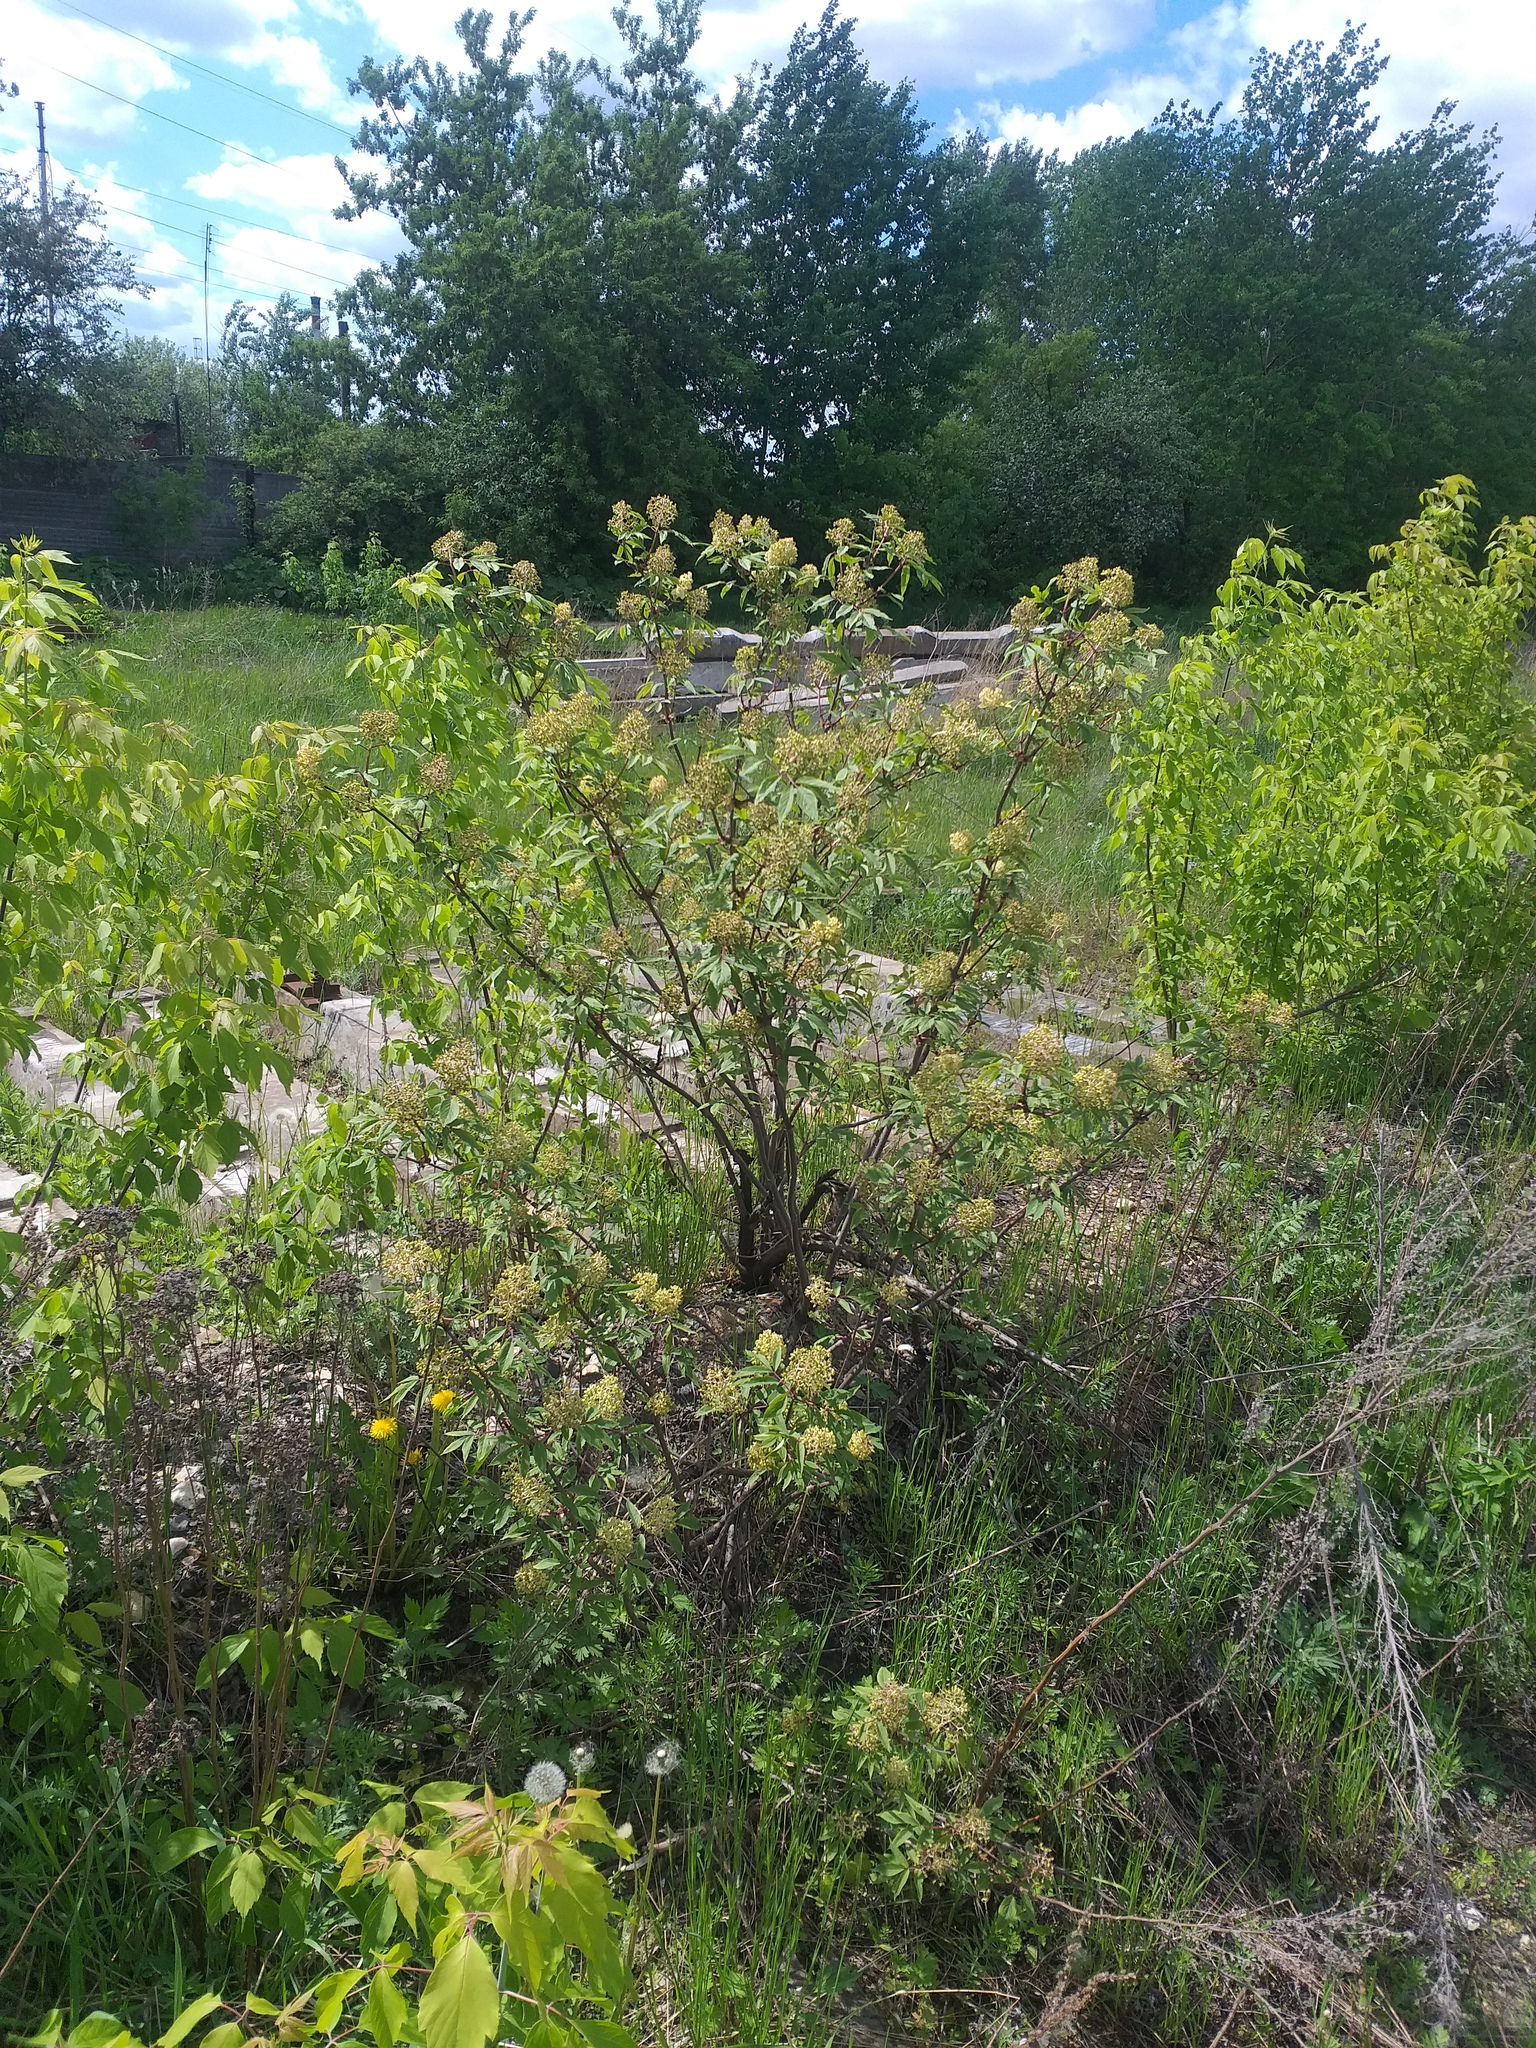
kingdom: Plantae
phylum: Tracheophyta
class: Magnoliopsida
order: Dipsacales
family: Viburnaceae
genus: Sambucus
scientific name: Sambucus racemosa
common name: Red-berried elder
